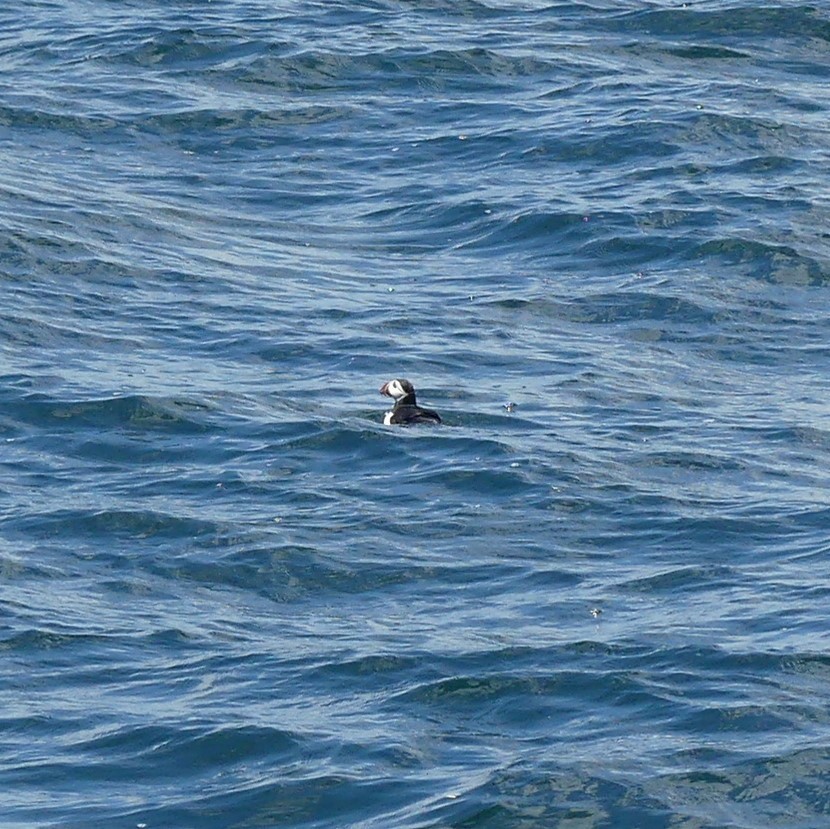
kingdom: Animalia
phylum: Chordata
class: Aves
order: Charadriiformes
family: Alcidae
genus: Fratercula
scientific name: Fratercula arctica
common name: Atlantic puffin
